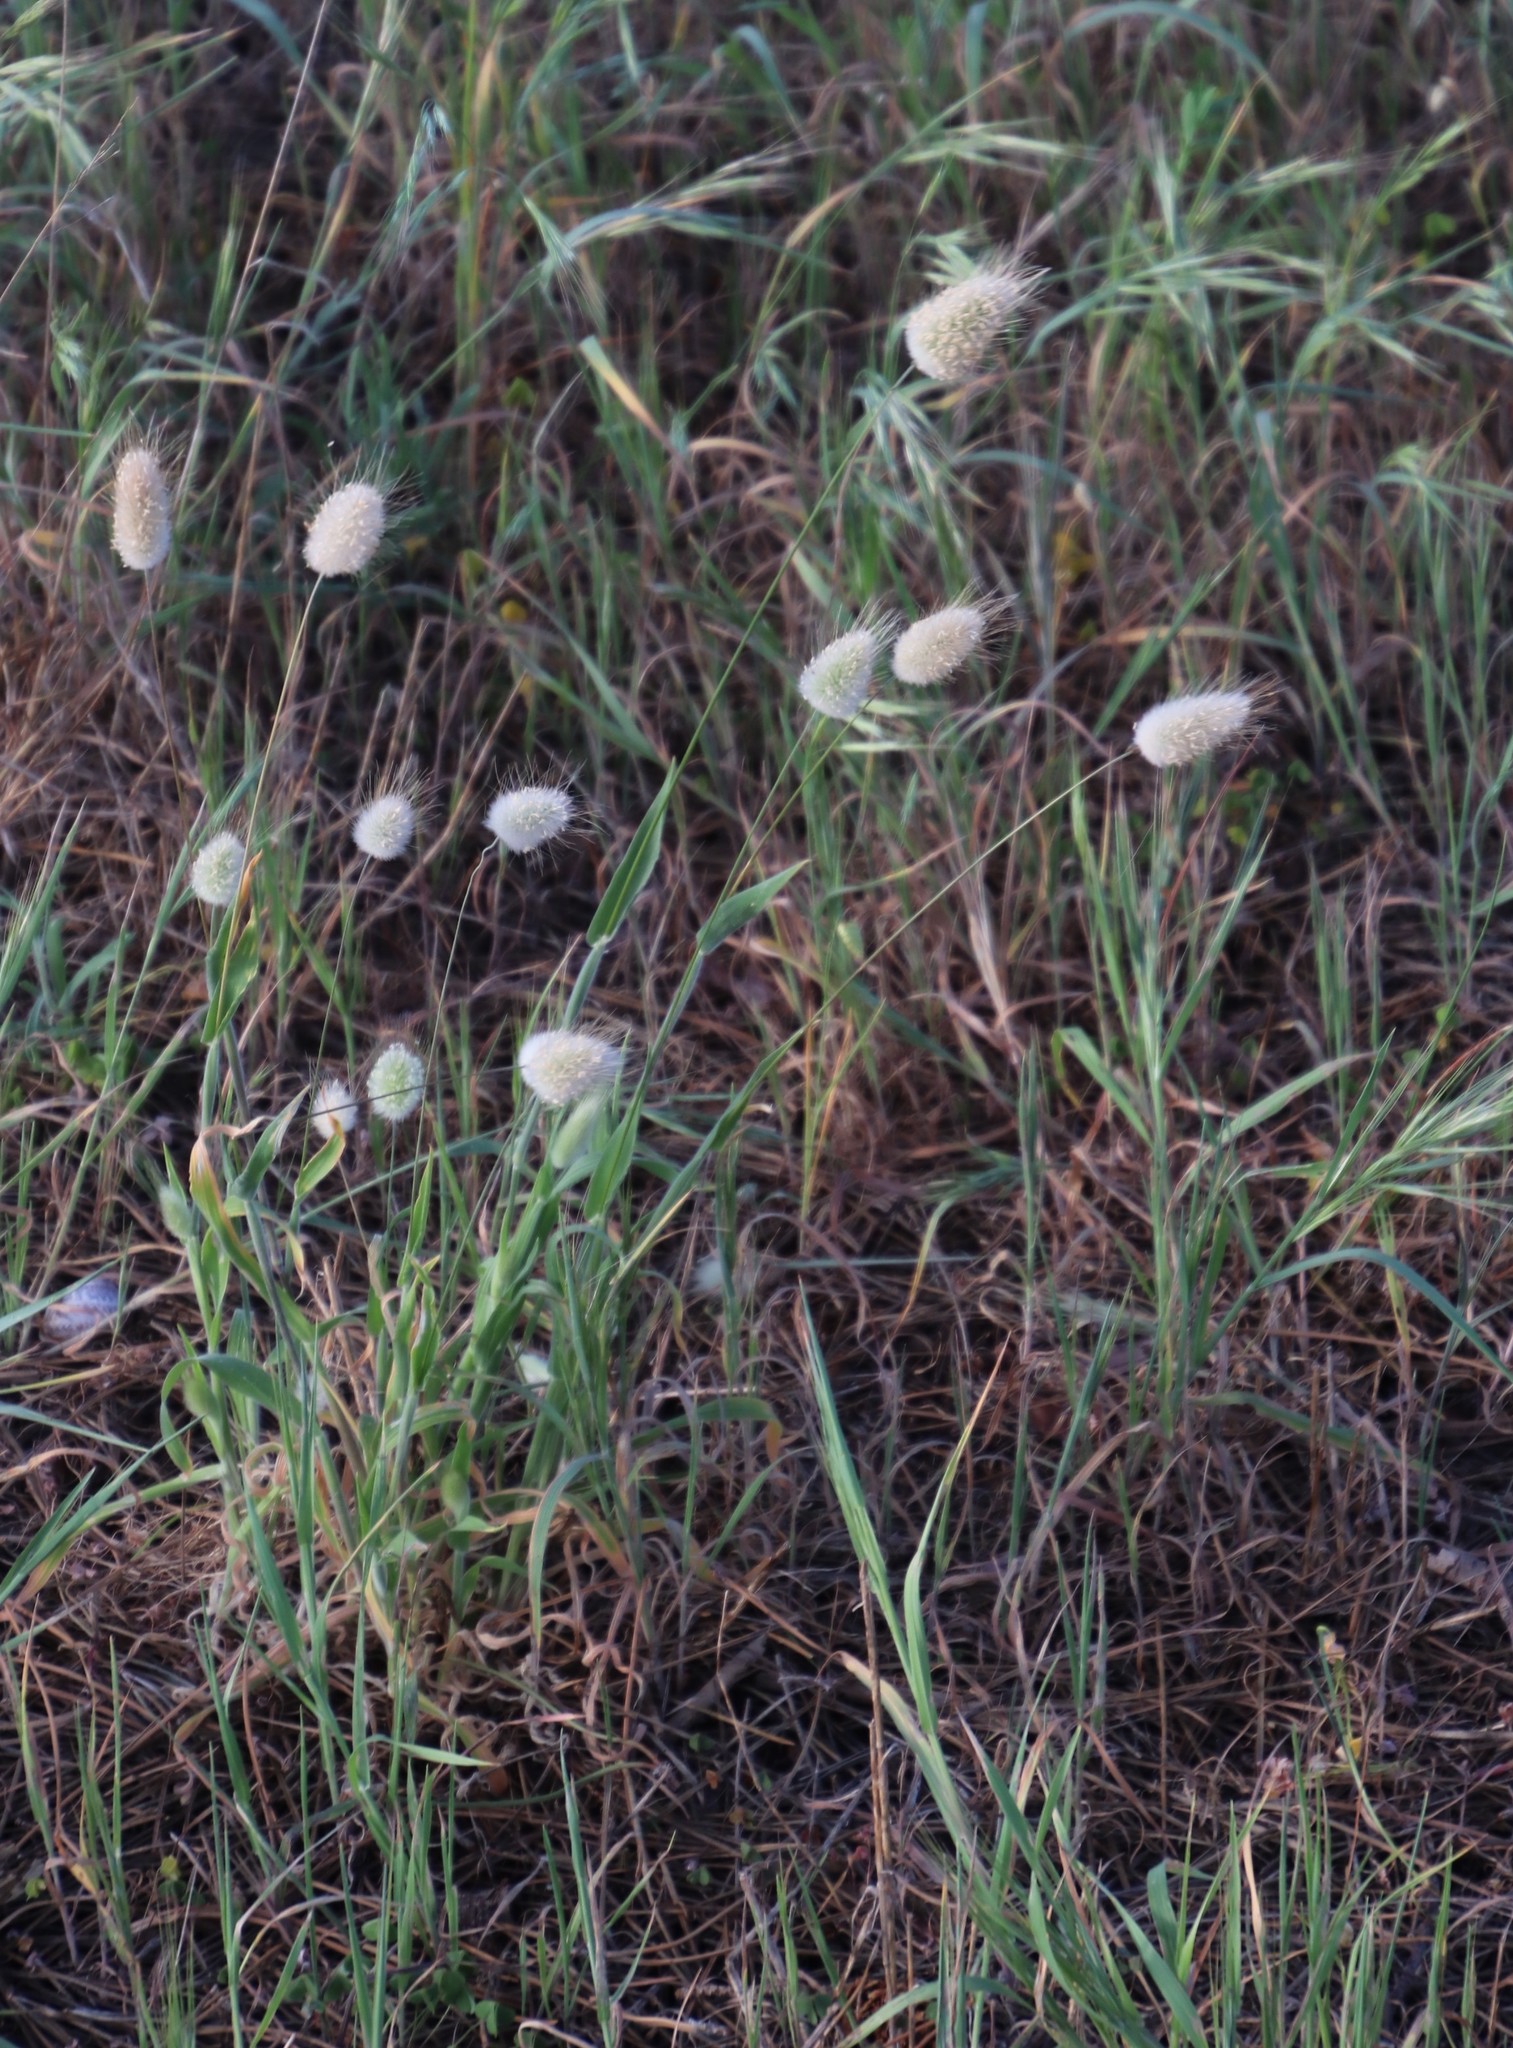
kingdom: Plantae
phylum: Tracheophyta
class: Liliopsida
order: Poales
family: Poaceae
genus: Lagurus
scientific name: Lagurus ovatus
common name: Hare's-tail
